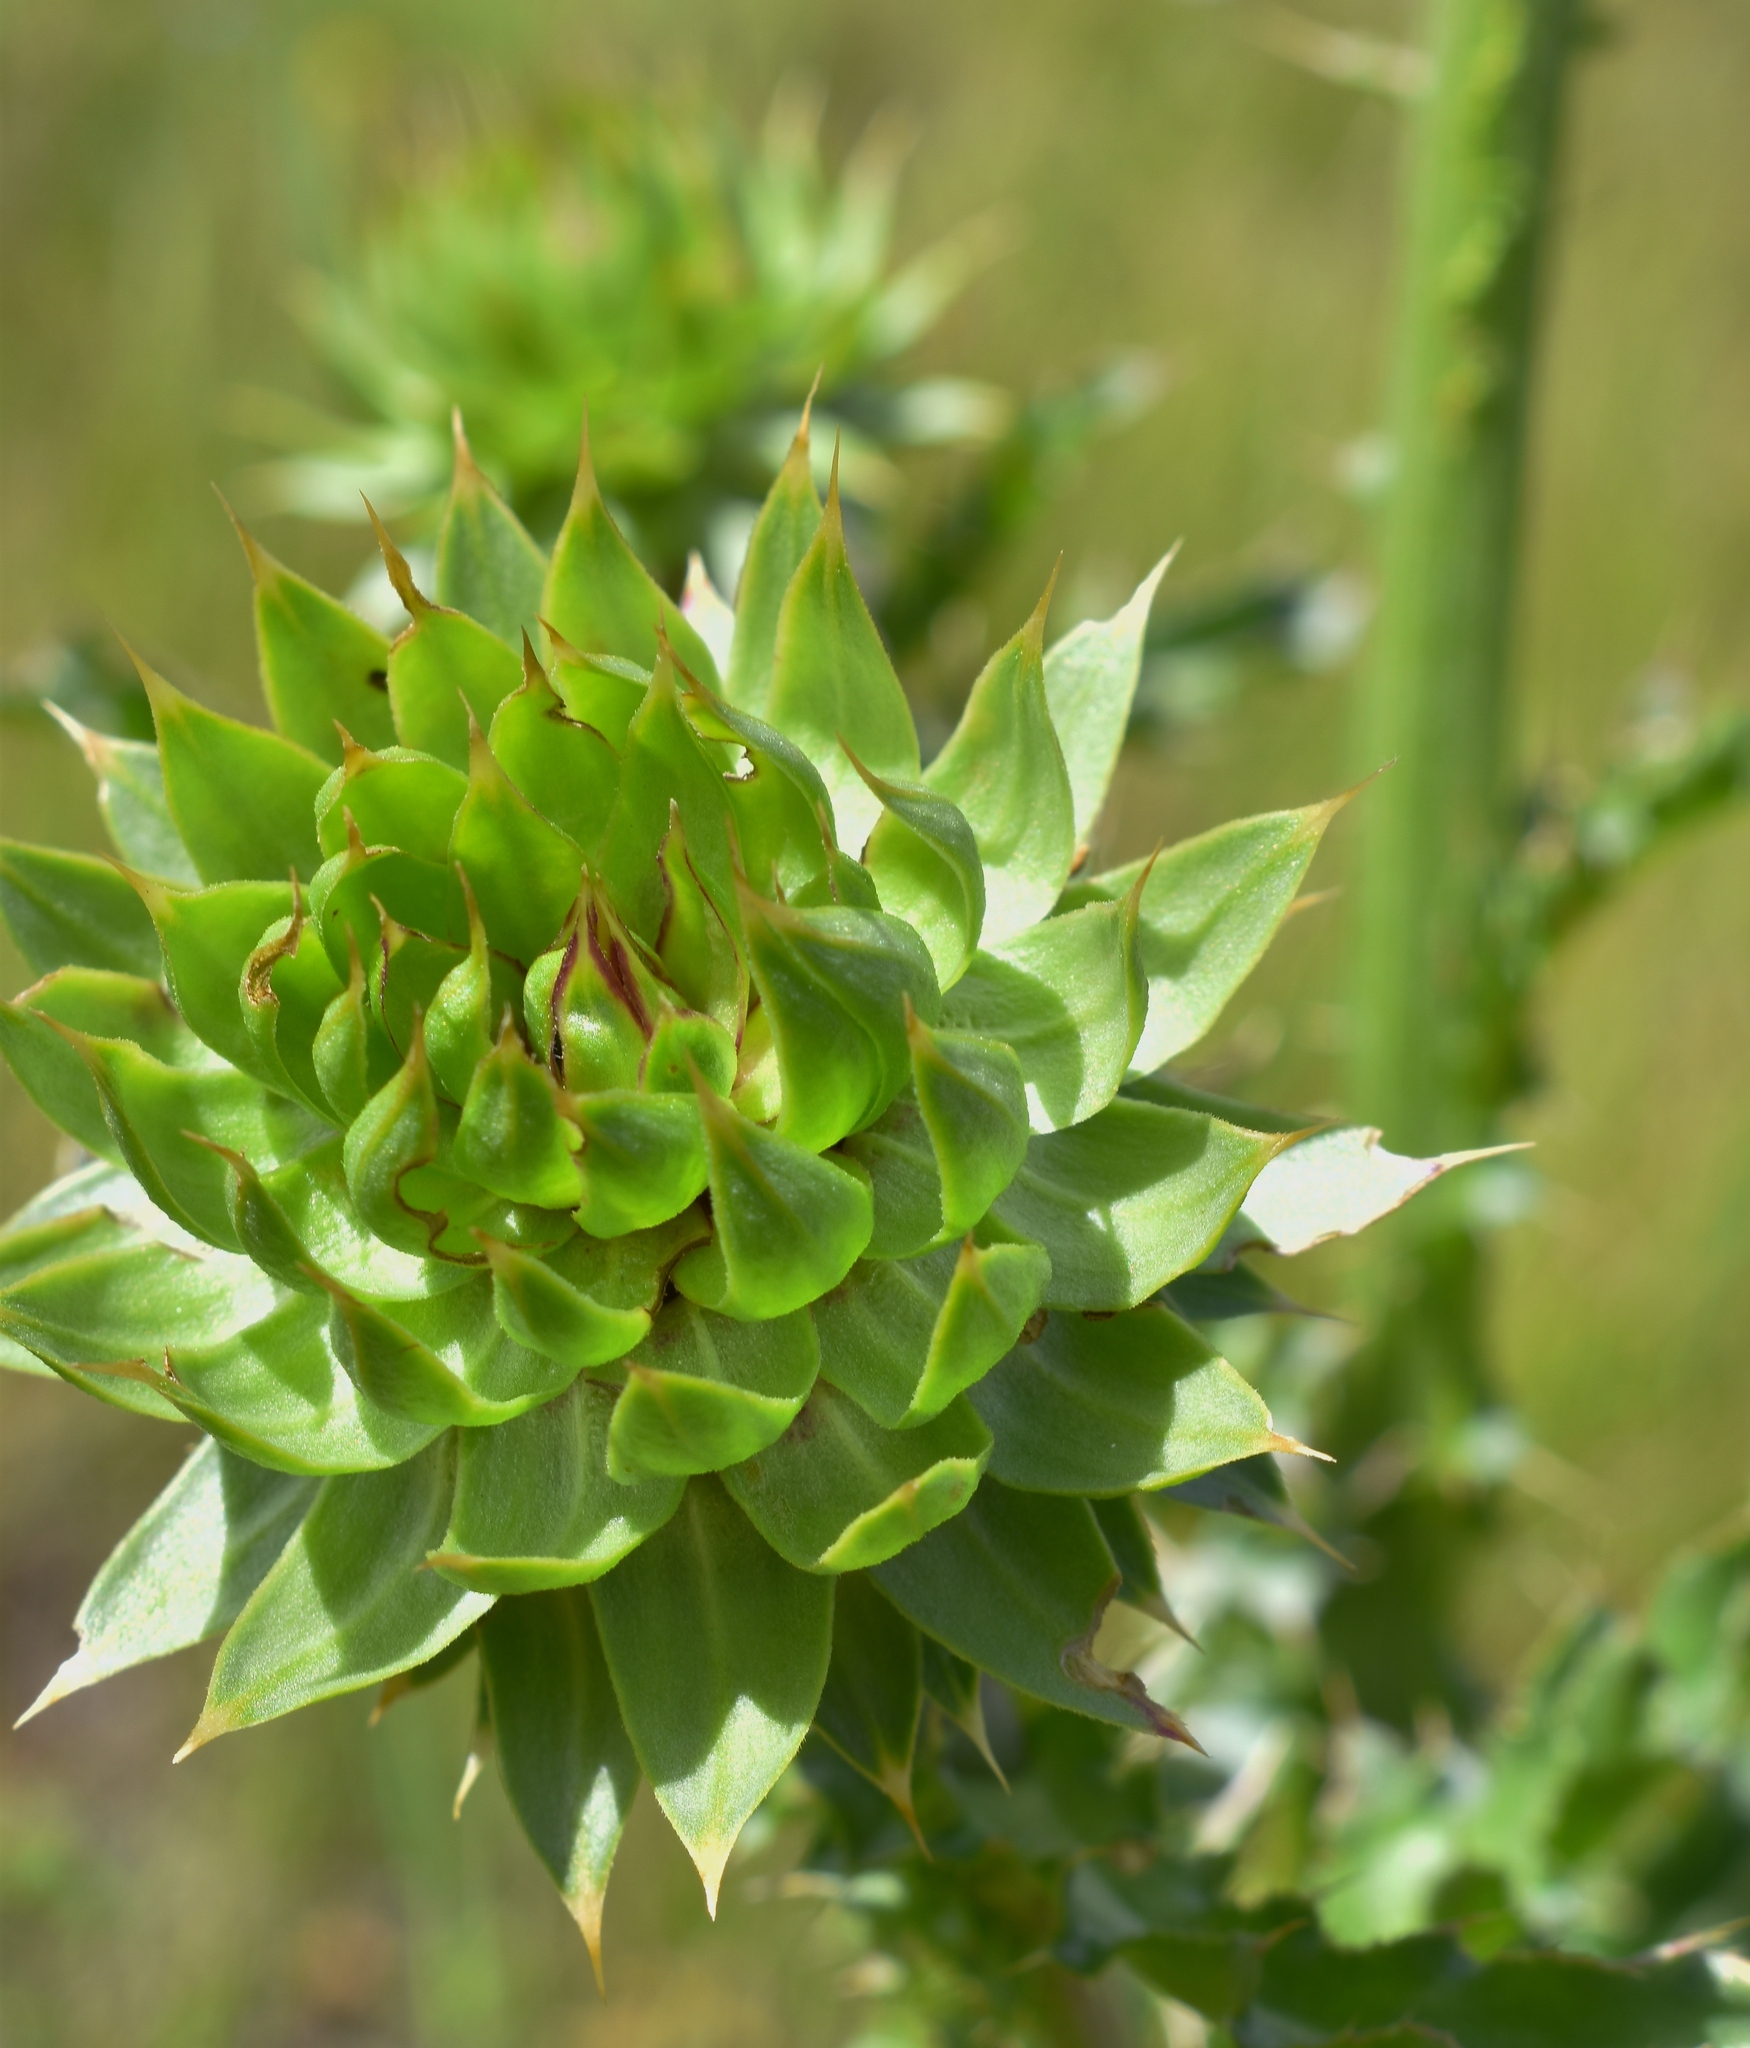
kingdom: Plantae
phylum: Tracheophyta
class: Magnoliopsida
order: Asterales
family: Asteraceae
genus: Carduus
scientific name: Carduus nutans
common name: Musk thistle
